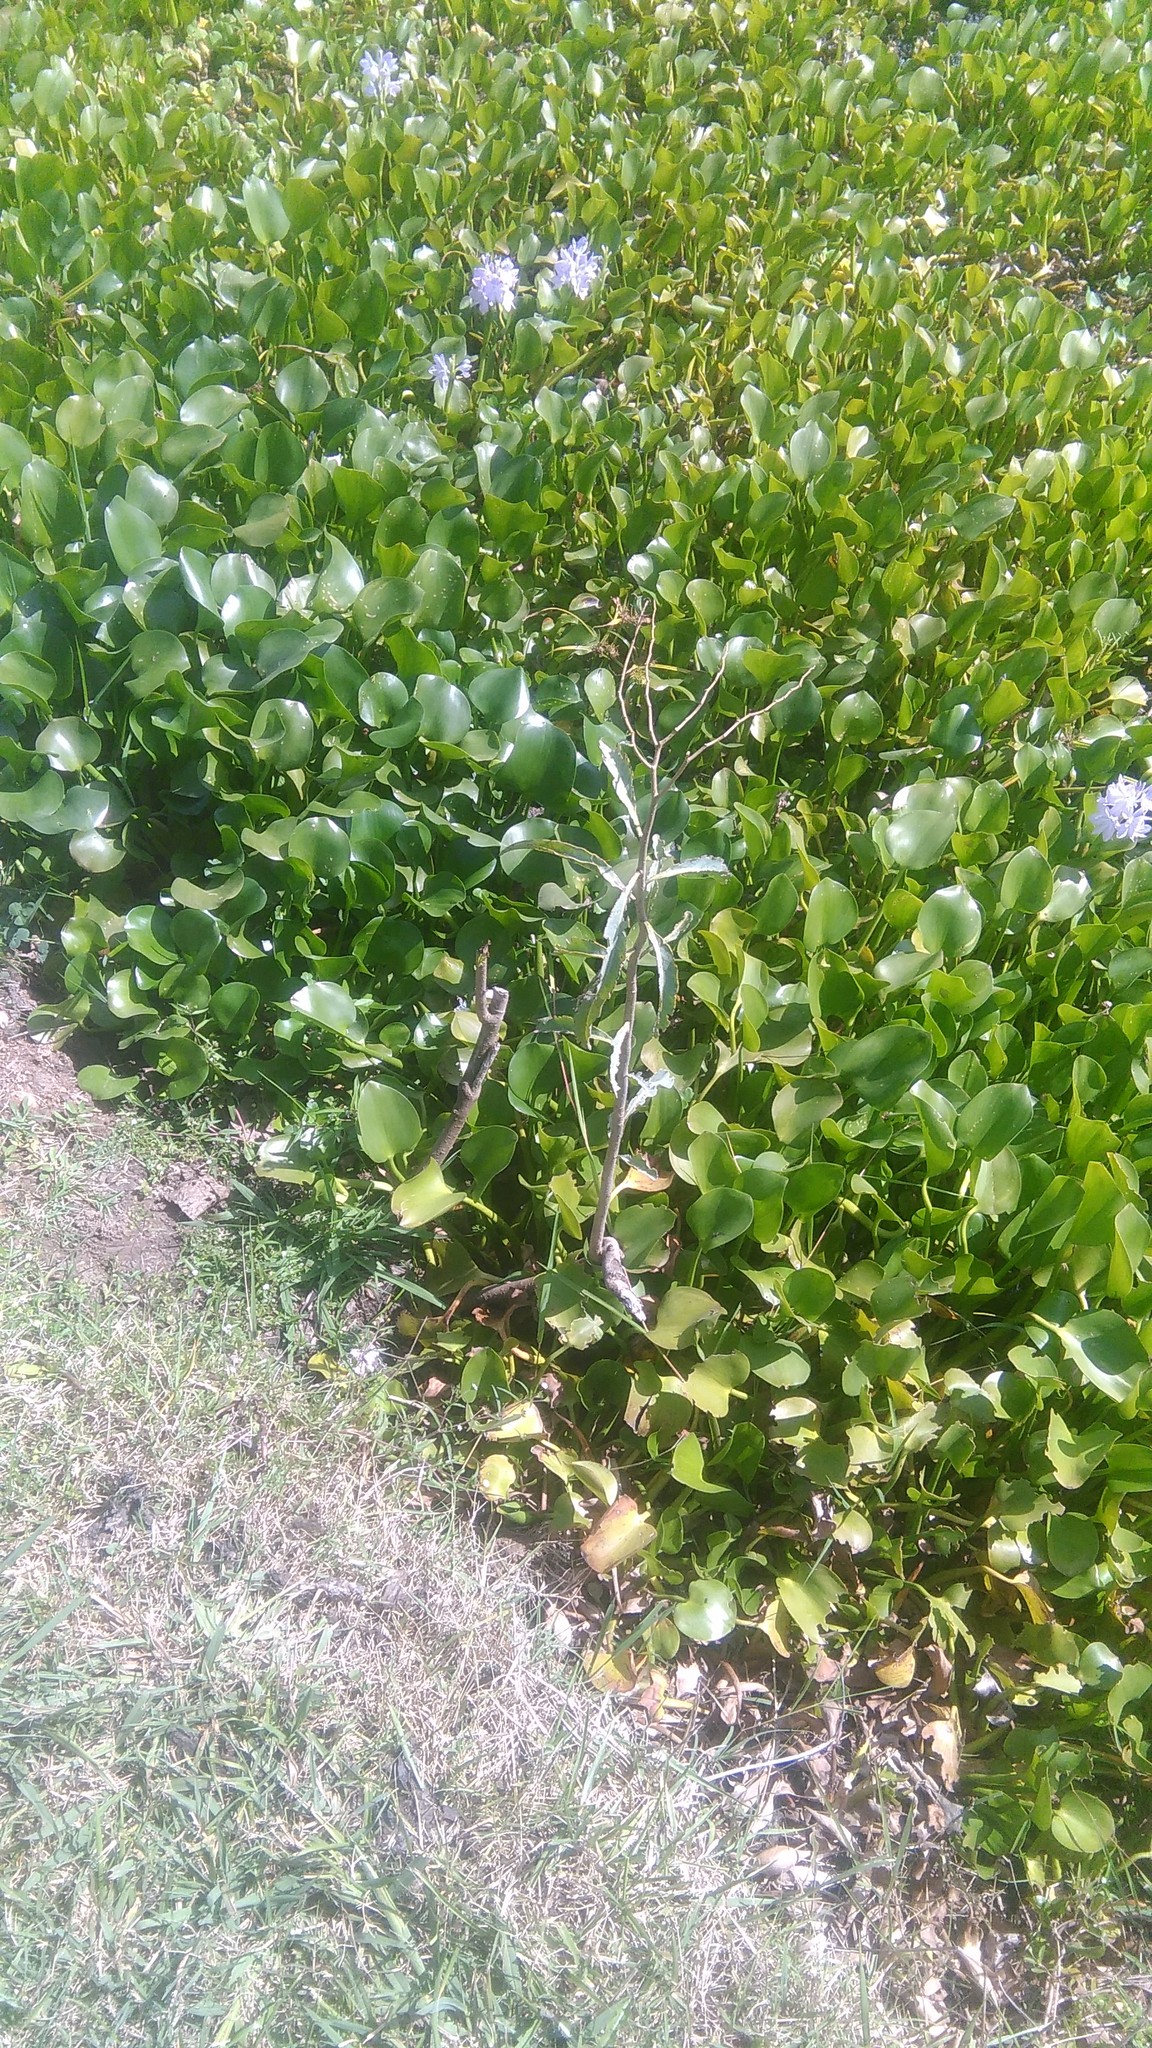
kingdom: Plantae
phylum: Tracheophyta
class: Magnoliopsida
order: Solanales
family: Solanaceae
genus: Solanum
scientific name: Solanum glaucophyllum
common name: Waxyleaf nightshade
